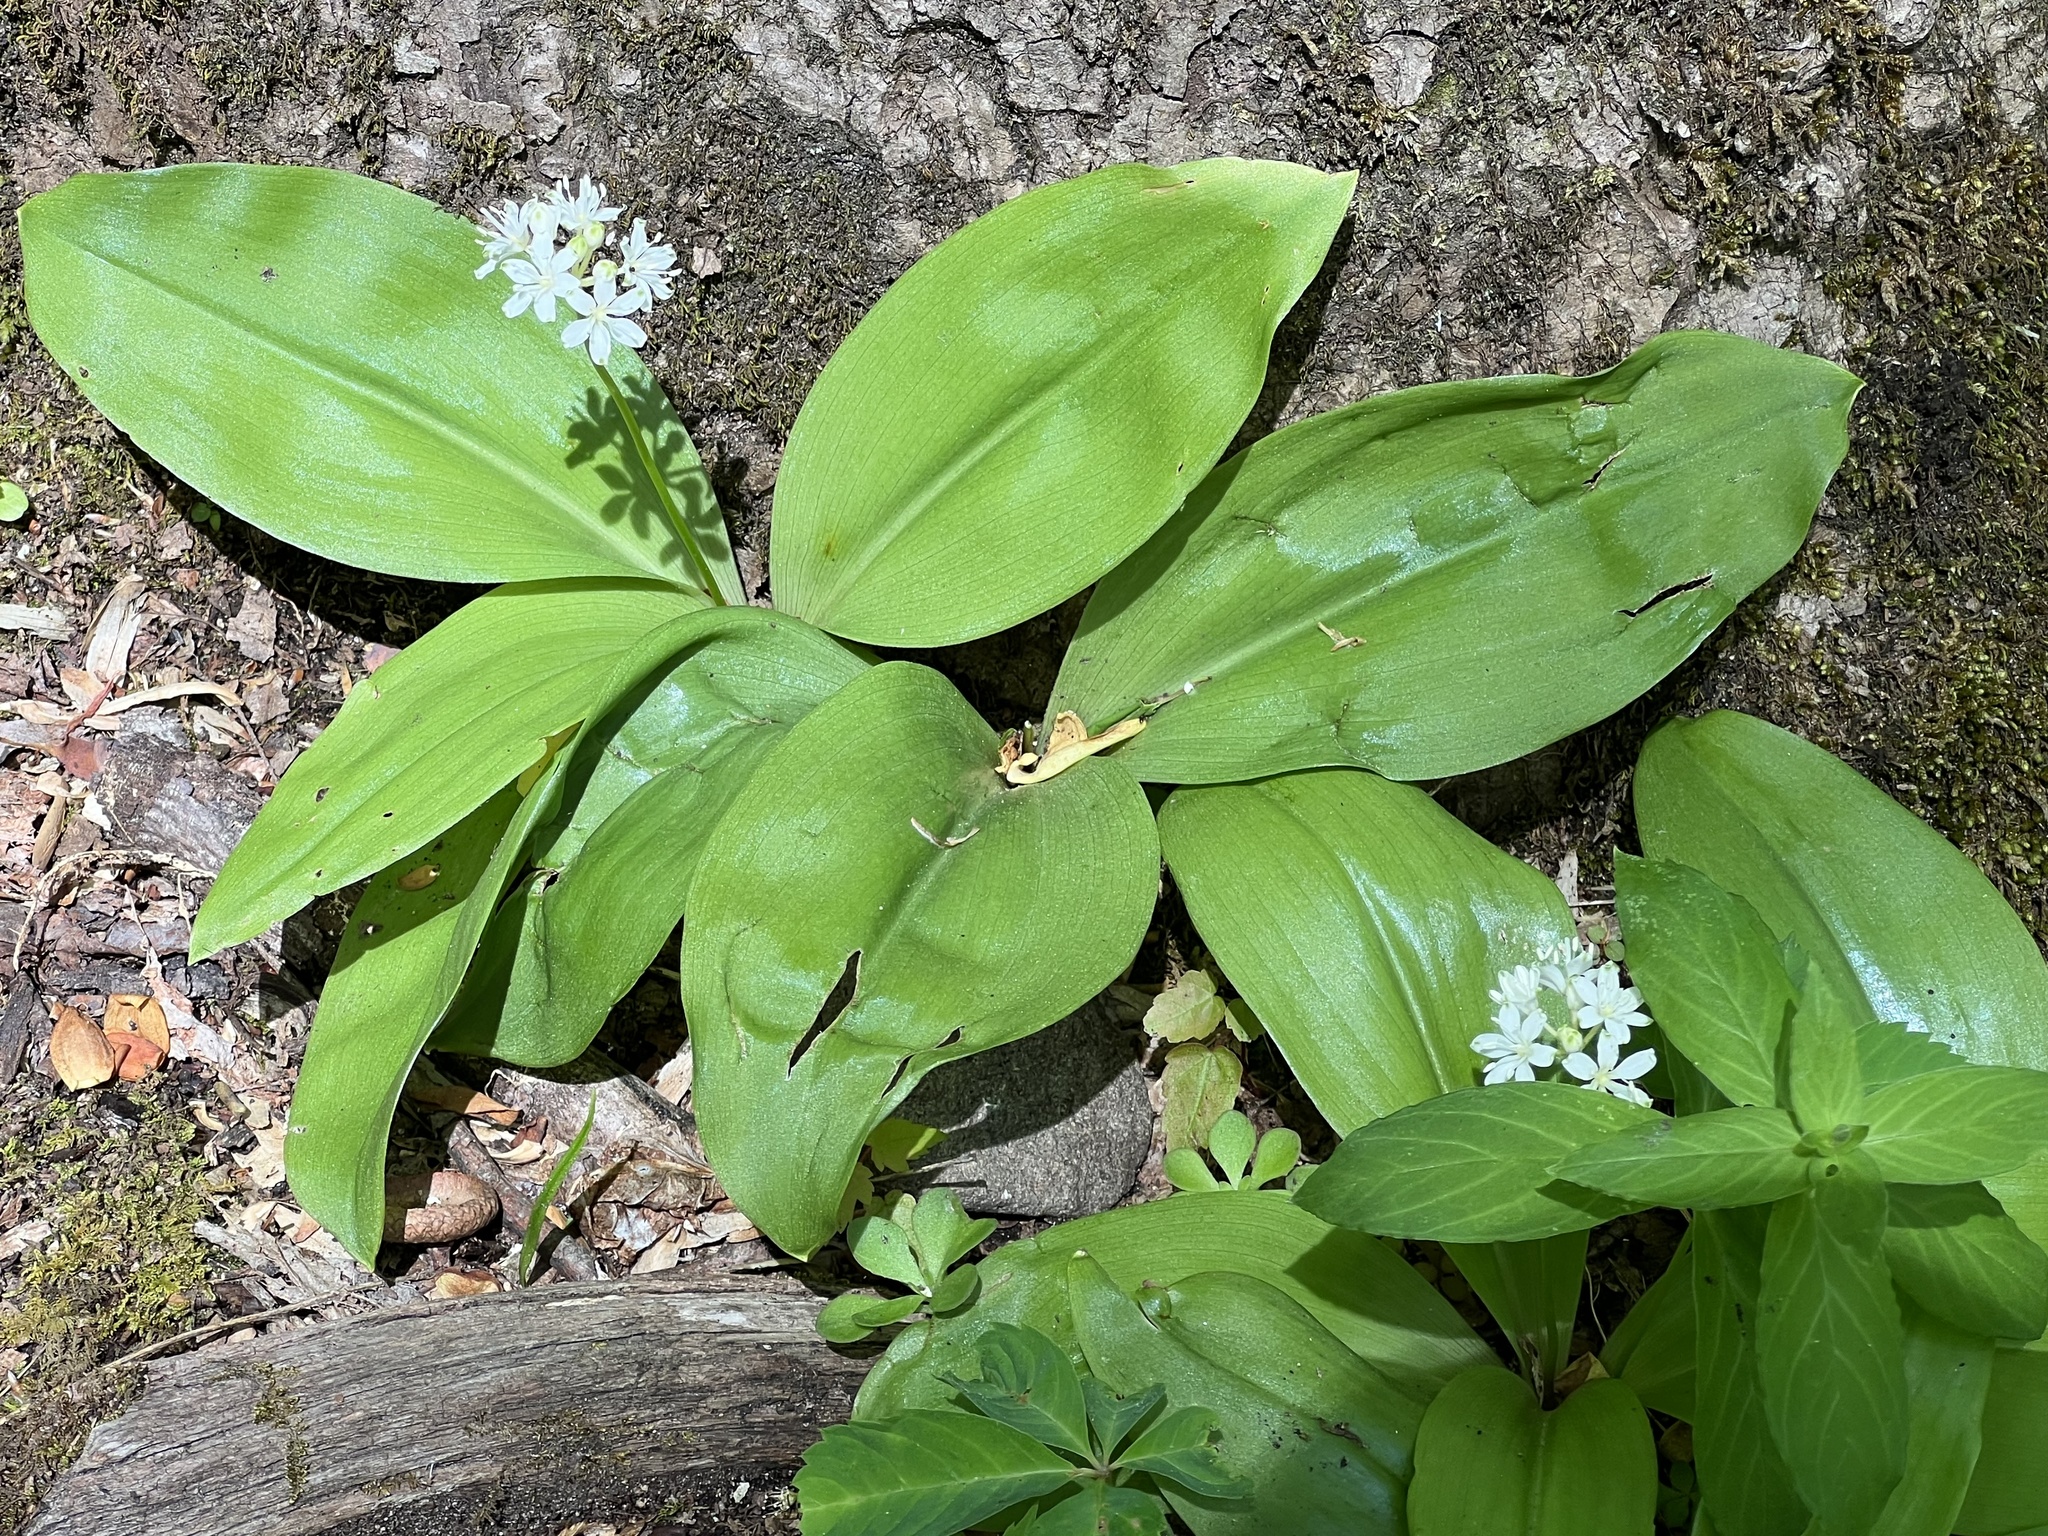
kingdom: Plantae
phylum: Tracheophyta
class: Liliopsida
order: Liliales
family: Liliaceae
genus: Clintonia
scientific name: Clintonia umbellulata
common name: Speckle wood-lily
